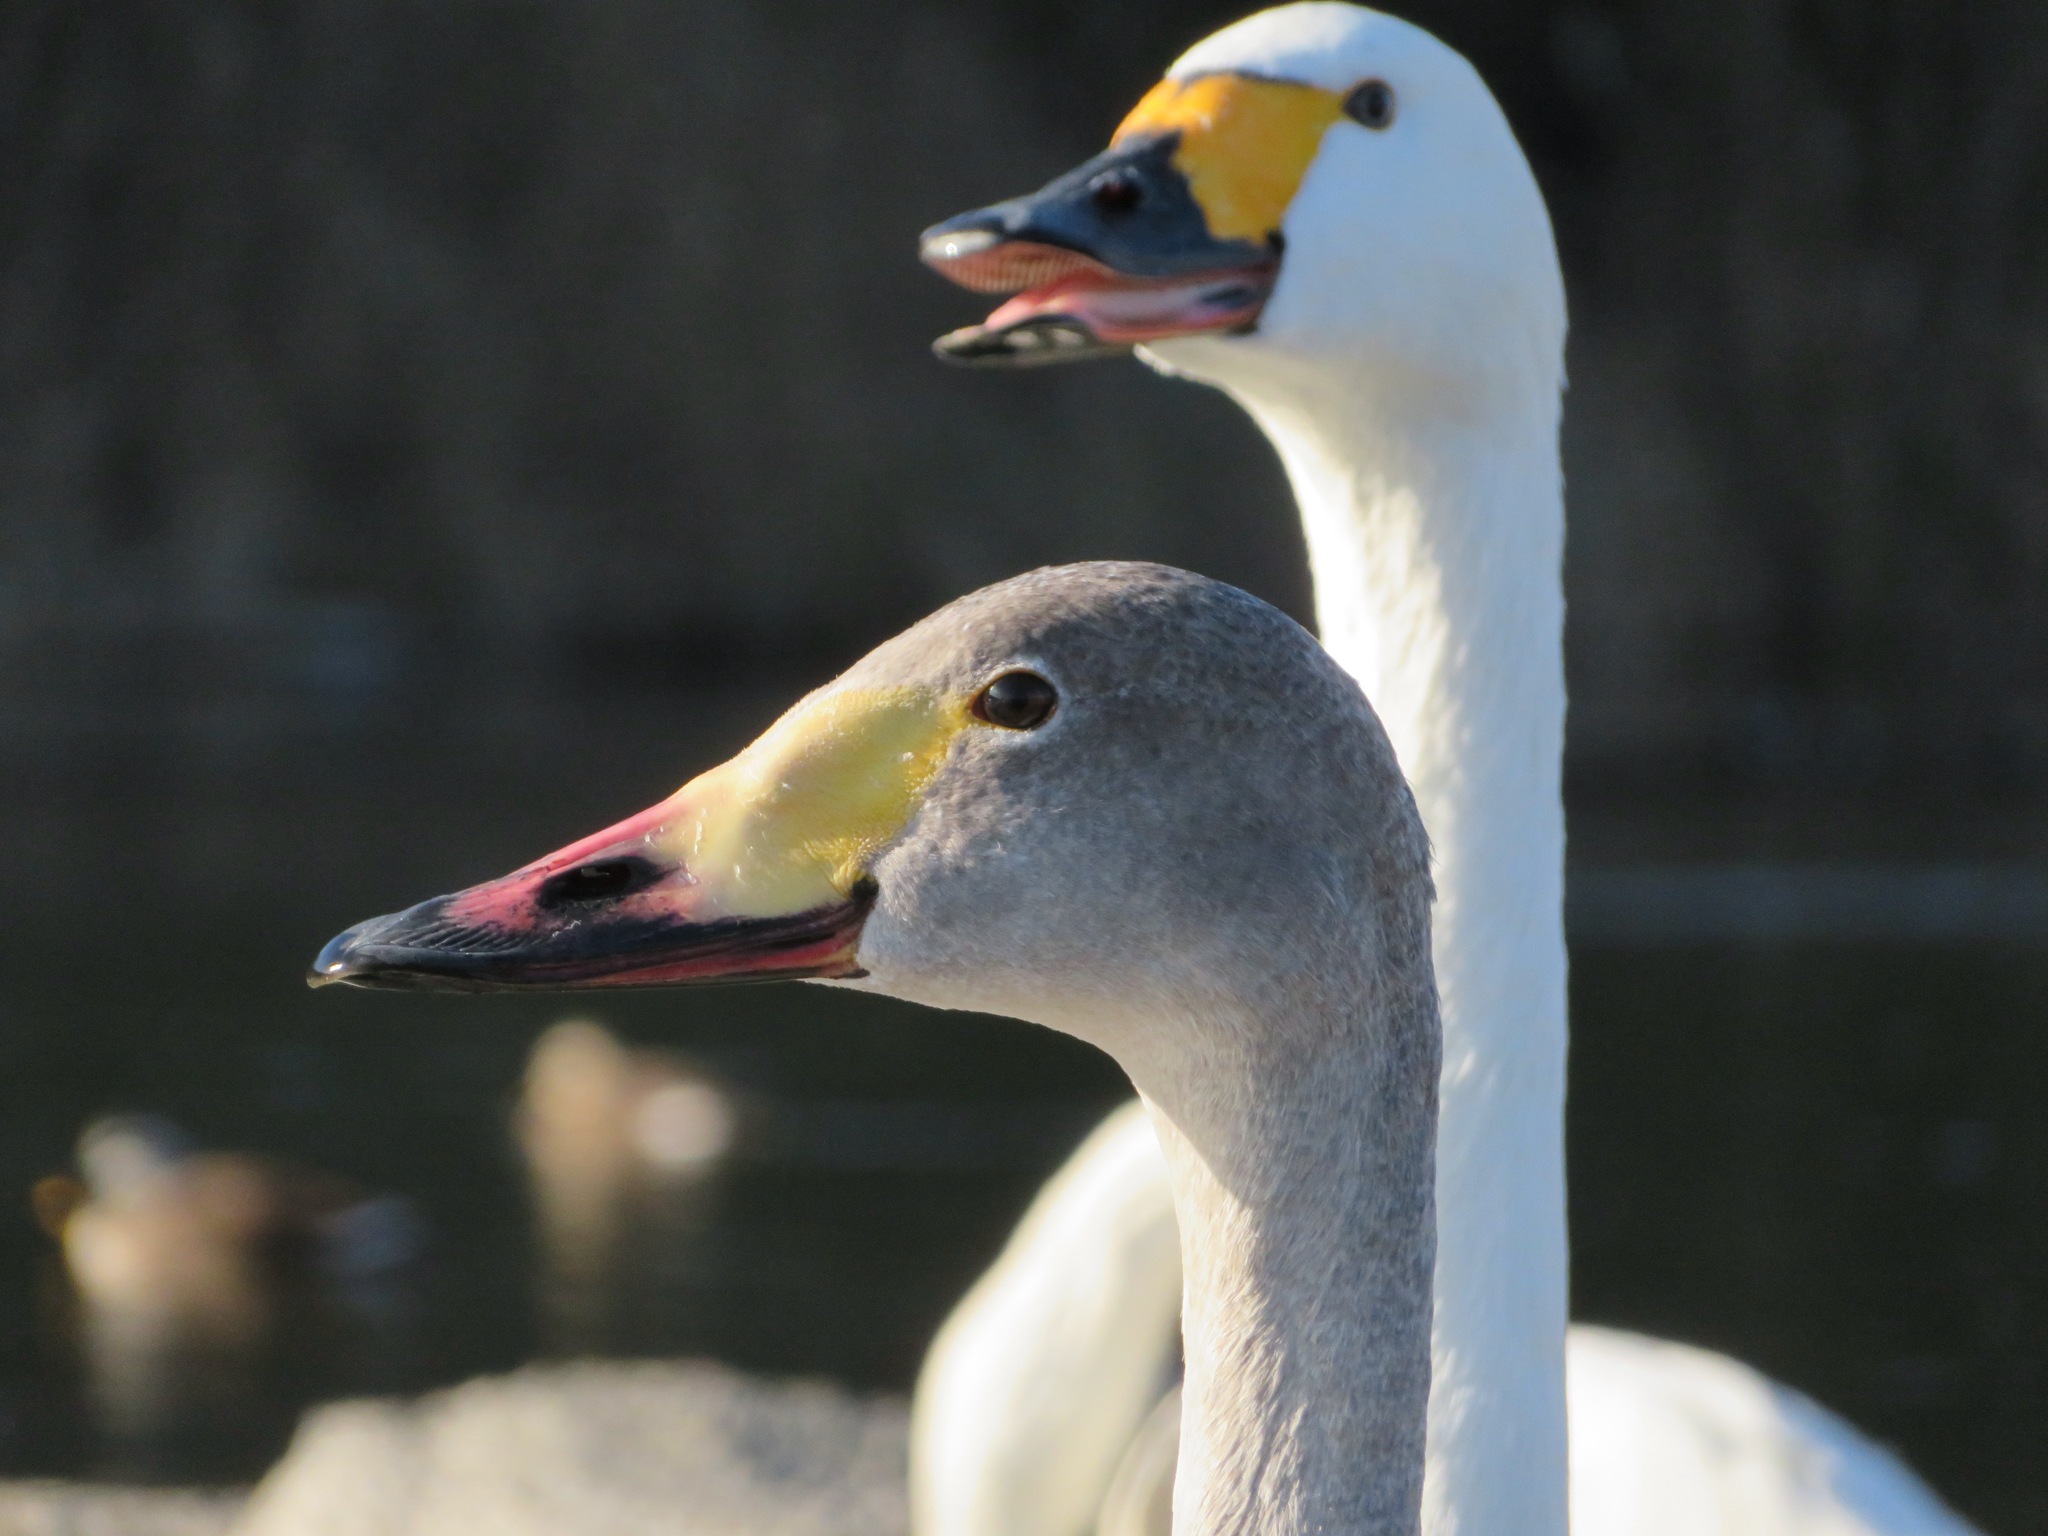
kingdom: Animalia
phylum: Chordata
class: Aves
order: Anseriformes
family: Anatidae
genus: Cygnus
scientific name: Cygnus columbianus
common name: Tundra swan
